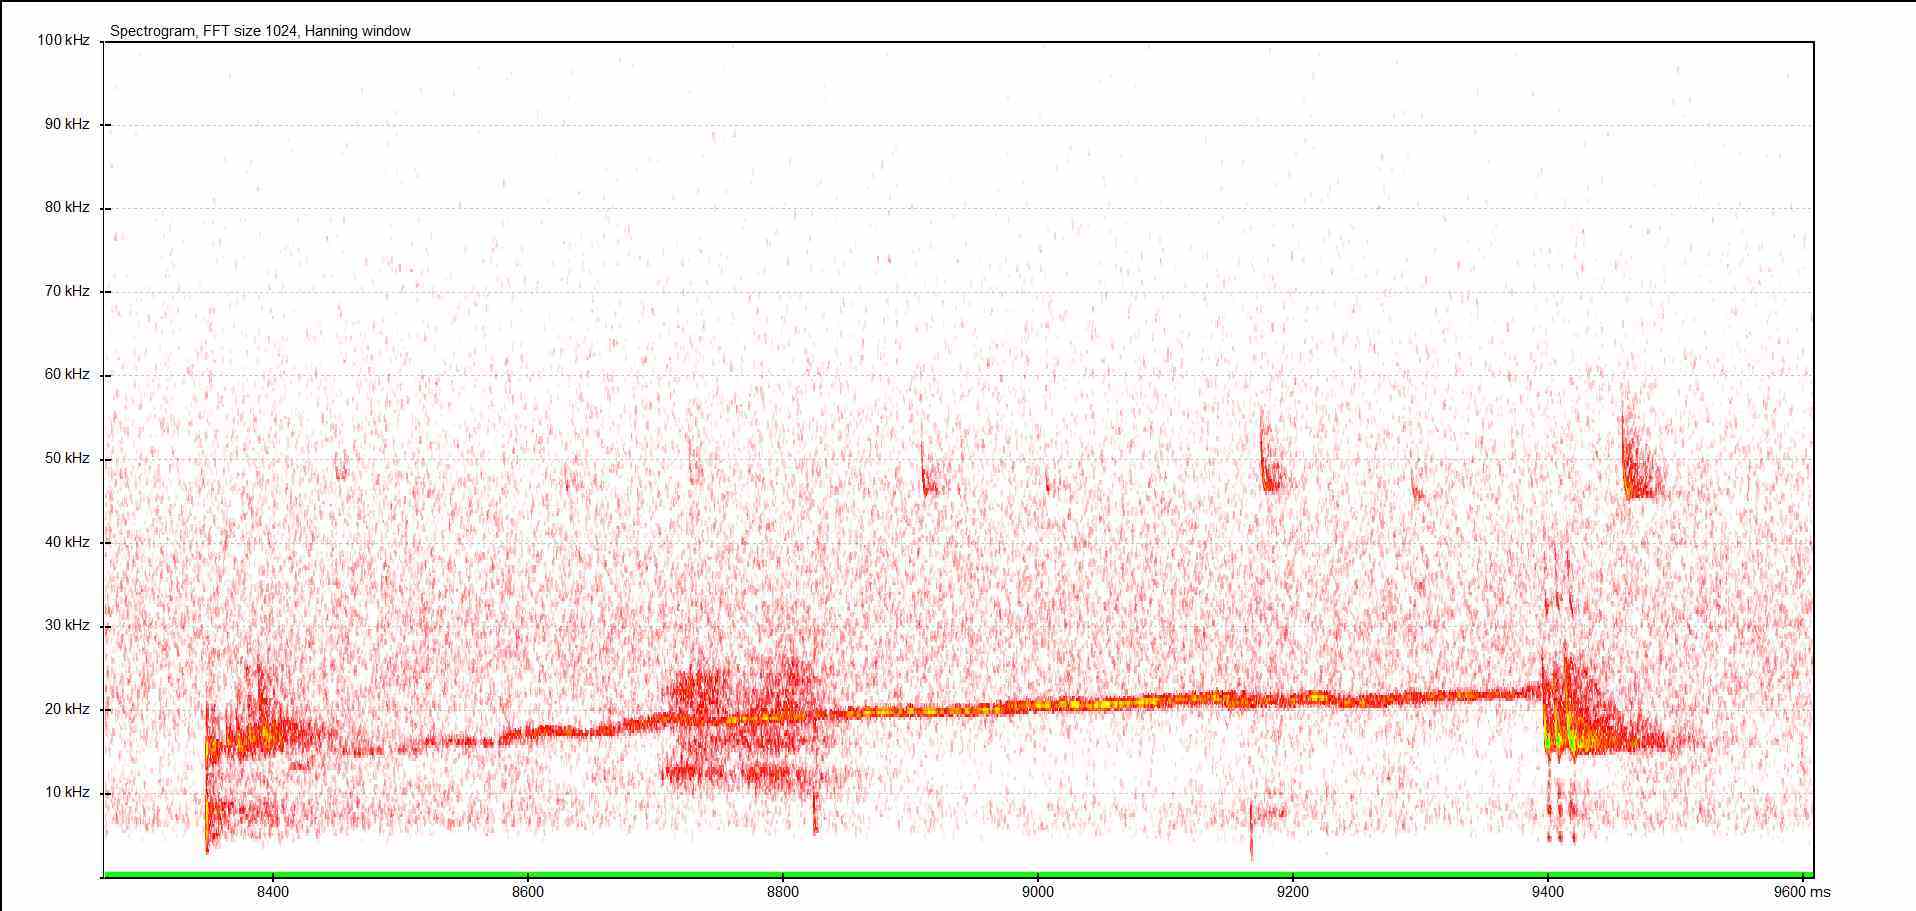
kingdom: Animalia
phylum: Chordata
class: Mammalia
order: Rodentia
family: Gliridae
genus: Muscardinus
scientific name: Muscardinus avellanarius
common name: Hazel dormouse
